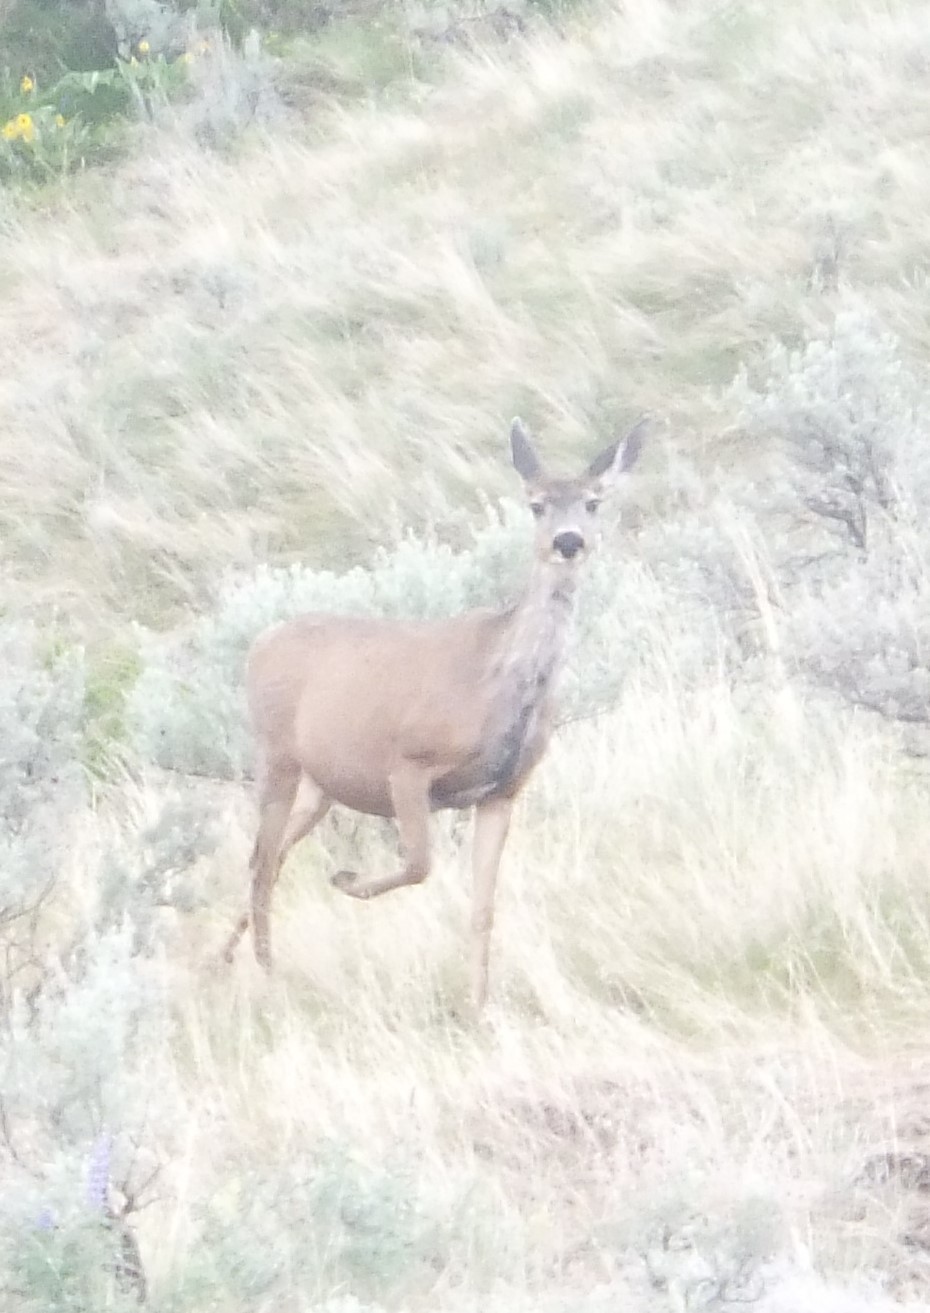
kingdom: Animalia
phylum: Chordata
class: Mammalia
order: Artiodactyla
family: Cervidae
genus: Odocoileus
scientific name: Odocoileus hemionus
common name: Mule deer
